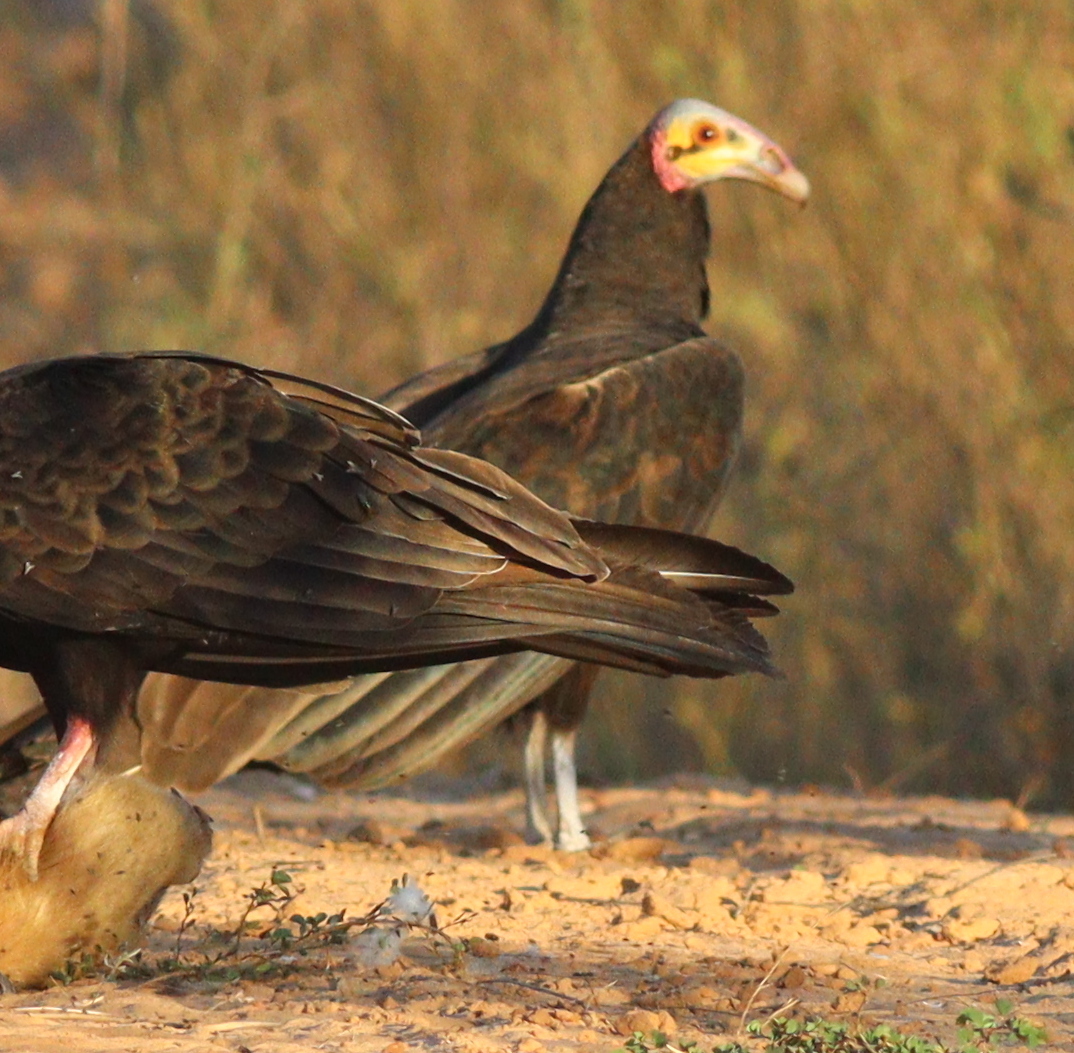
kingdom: Animalia
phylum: Chordata
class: Aves
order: Accipitriformes
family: Cathartidae
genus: Cathartes
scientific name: Cathartes burrovianus
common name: Lesser yellow-headed vulture
